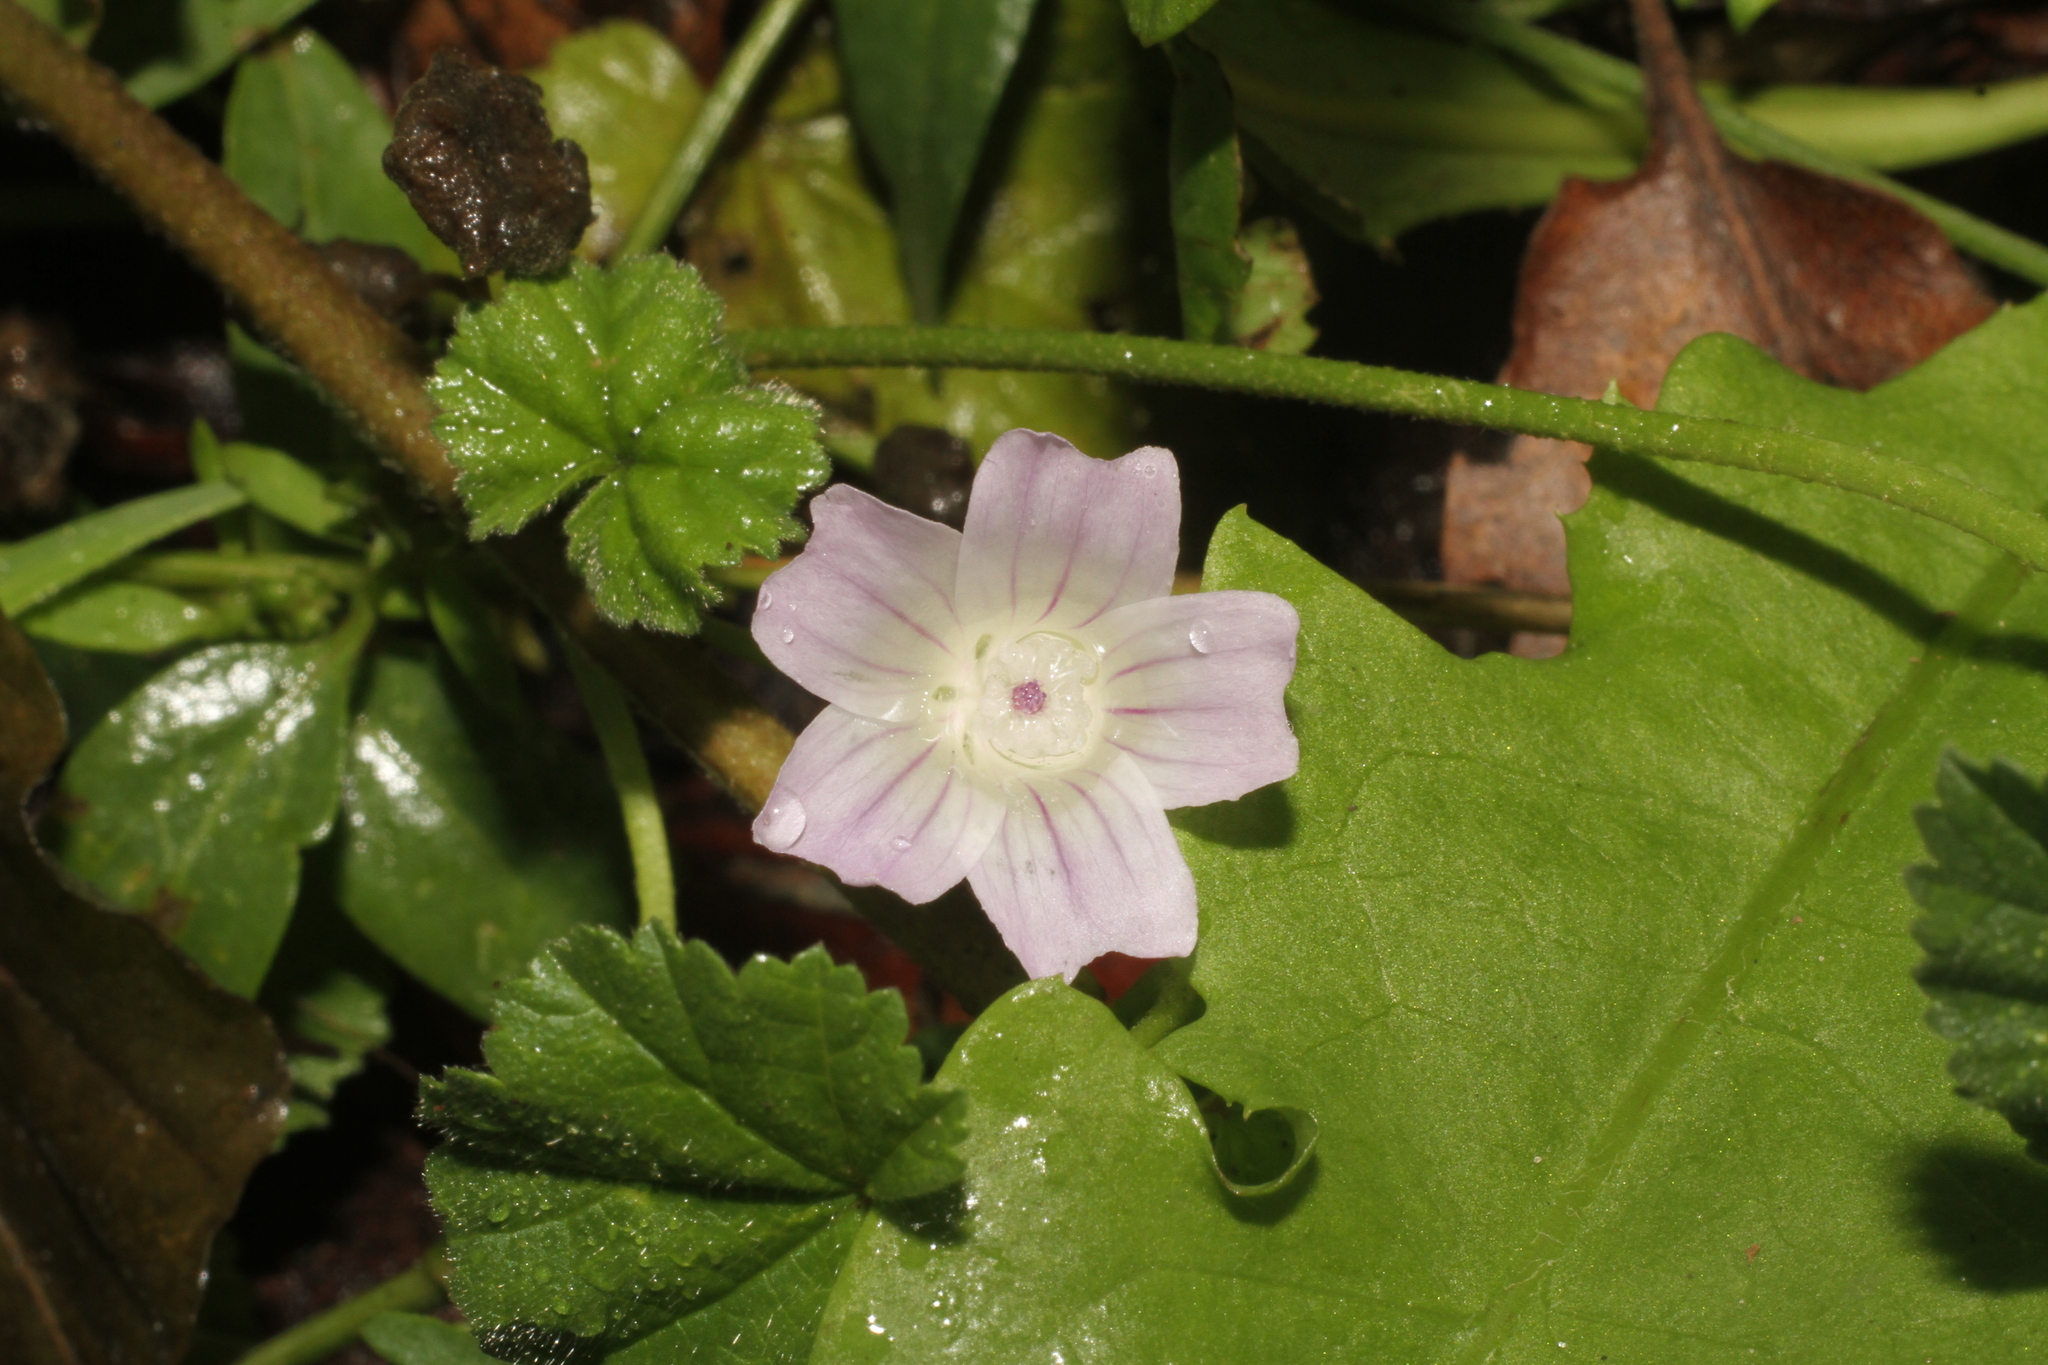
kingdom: Plantae
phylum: Tracheophyta
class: Magnoliopsida
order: Malvales
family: Malvaceae
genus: Malva
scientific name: Malva neglecta
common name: Common mallow
